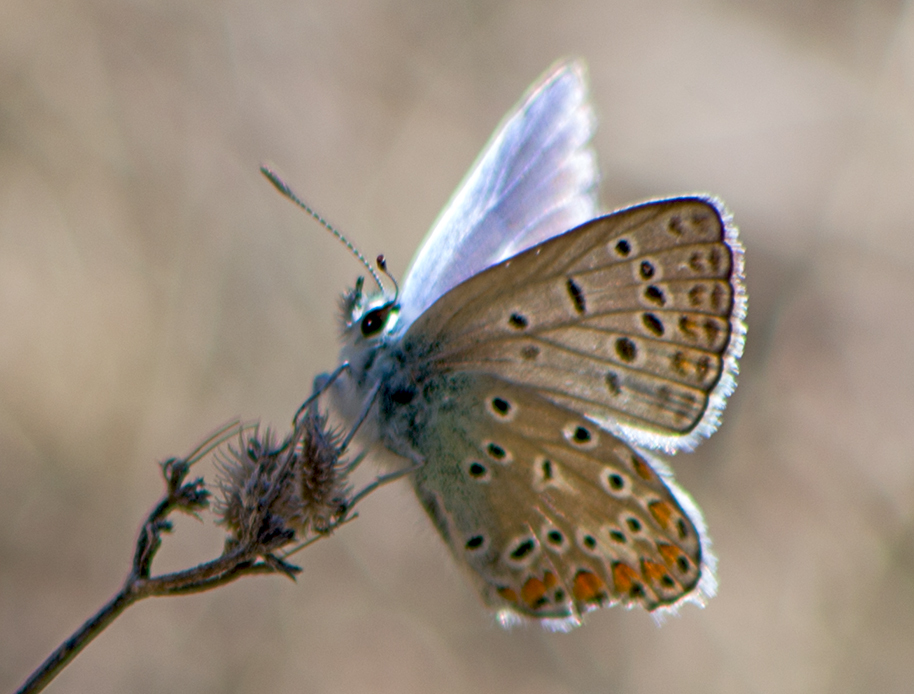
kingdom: Animalia
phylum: Arthropoda
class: Insecta
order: Lepidoptera
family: Lycaenidae
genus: Polyommatus
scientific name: Polyommatus icarus
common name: Common blue
